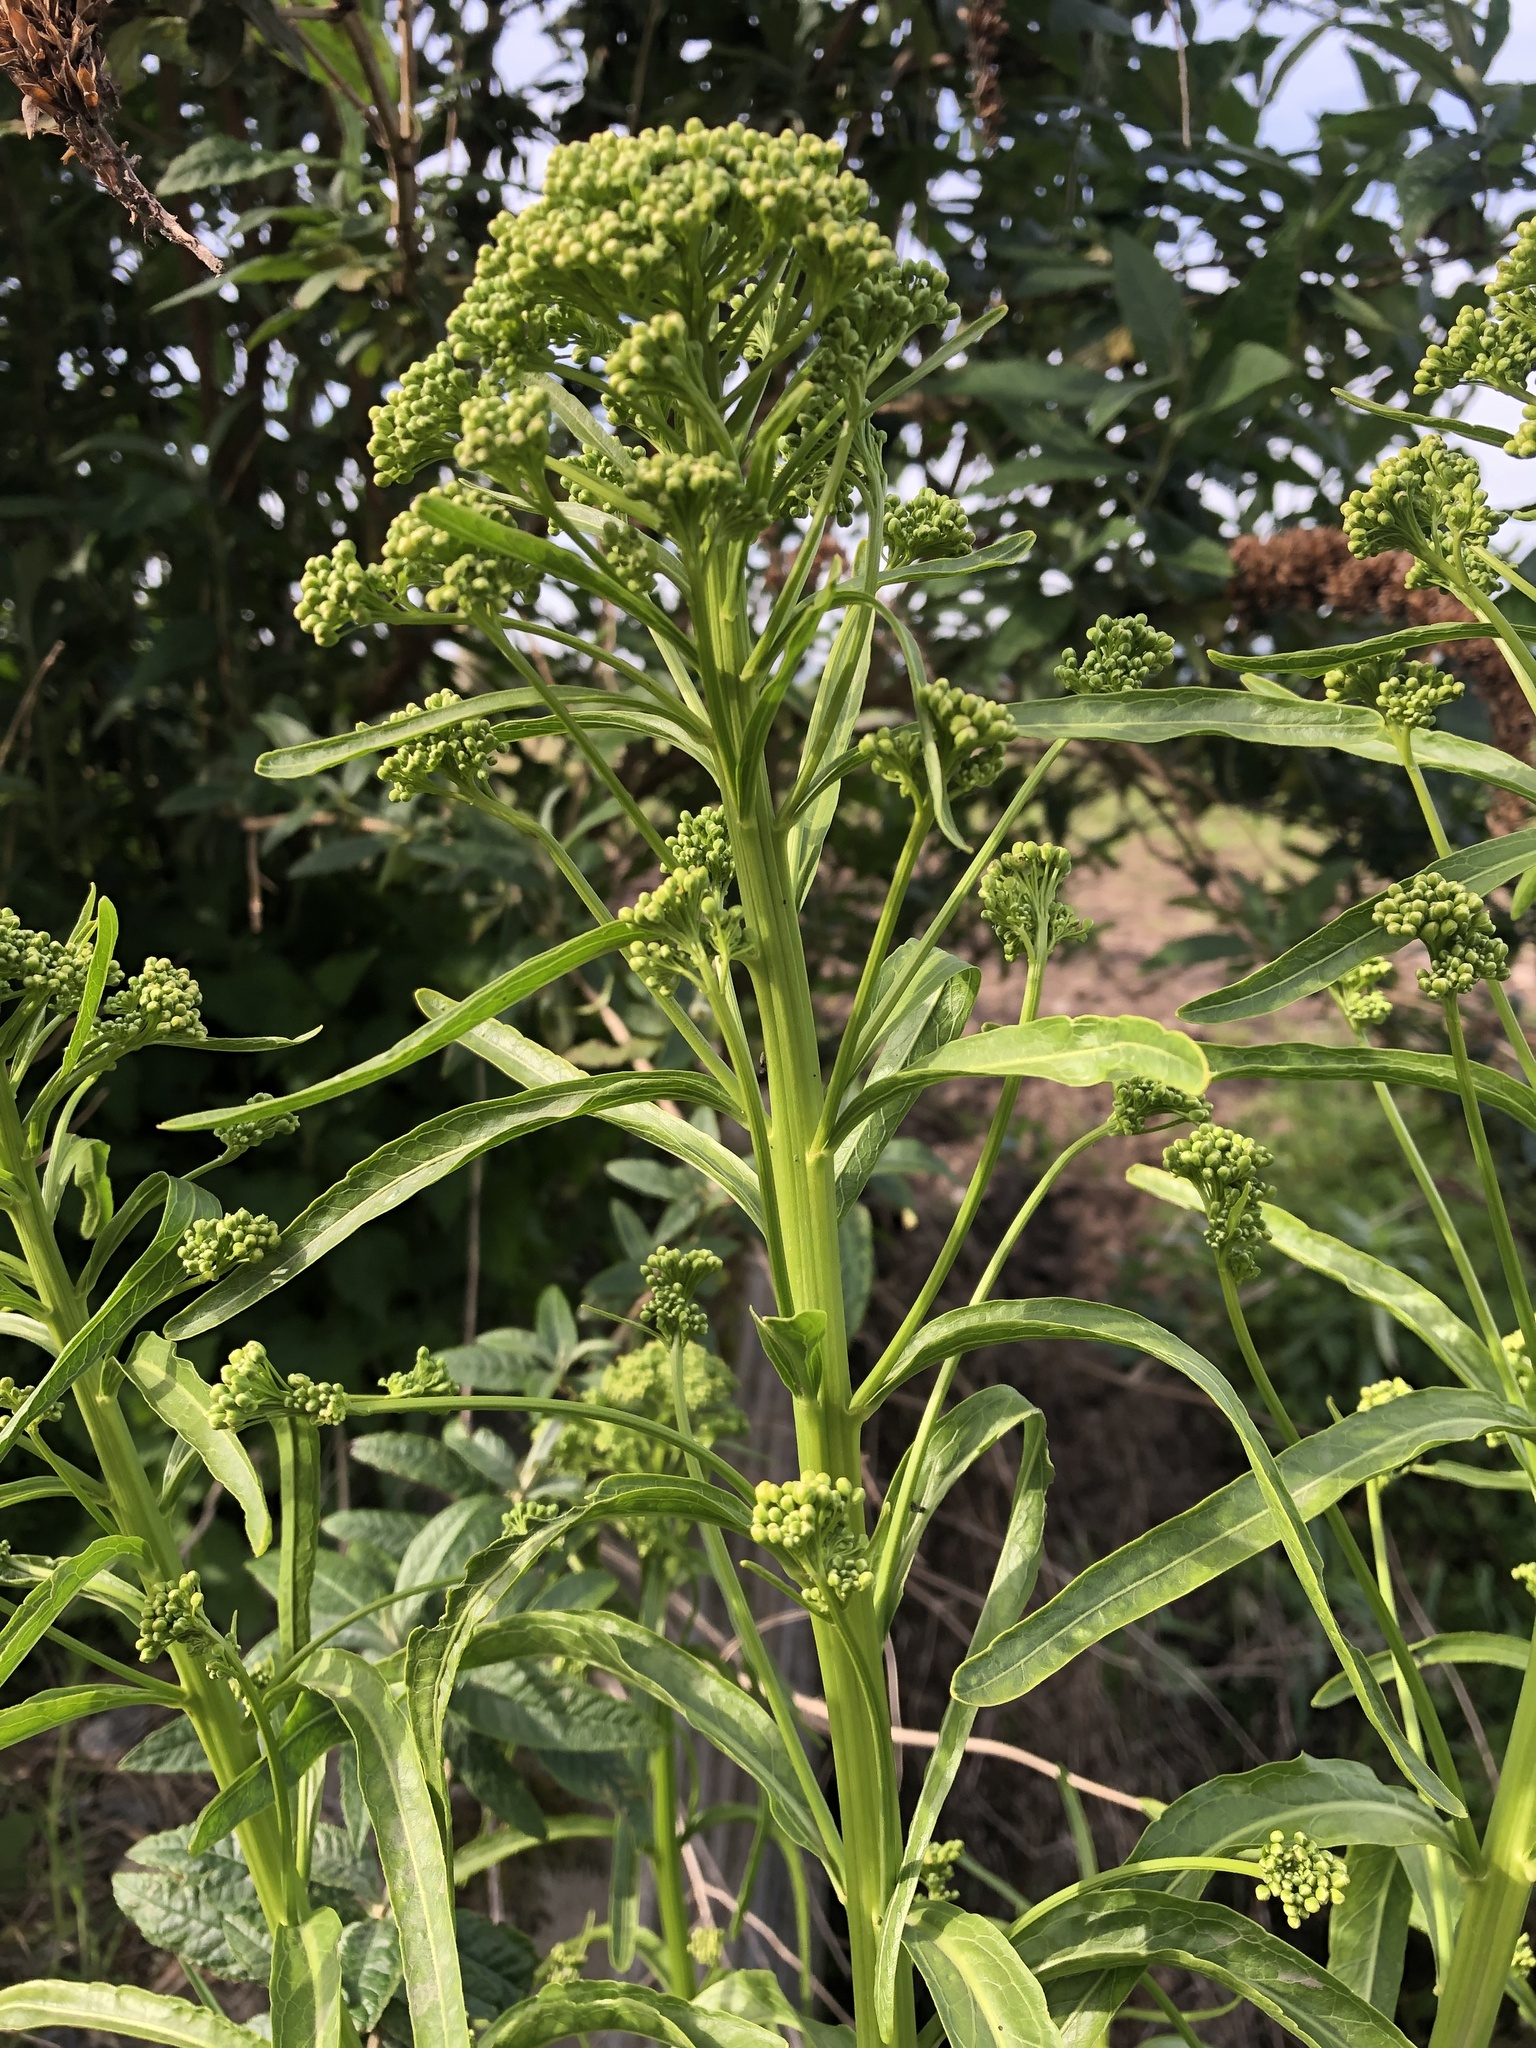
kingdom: Plantae
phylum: Tracheophyta
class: Magnoliopsida
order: Brassicales
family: Brassicaceae
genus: Armoracia
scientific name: Armoracia rusticana
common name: Horseradish
